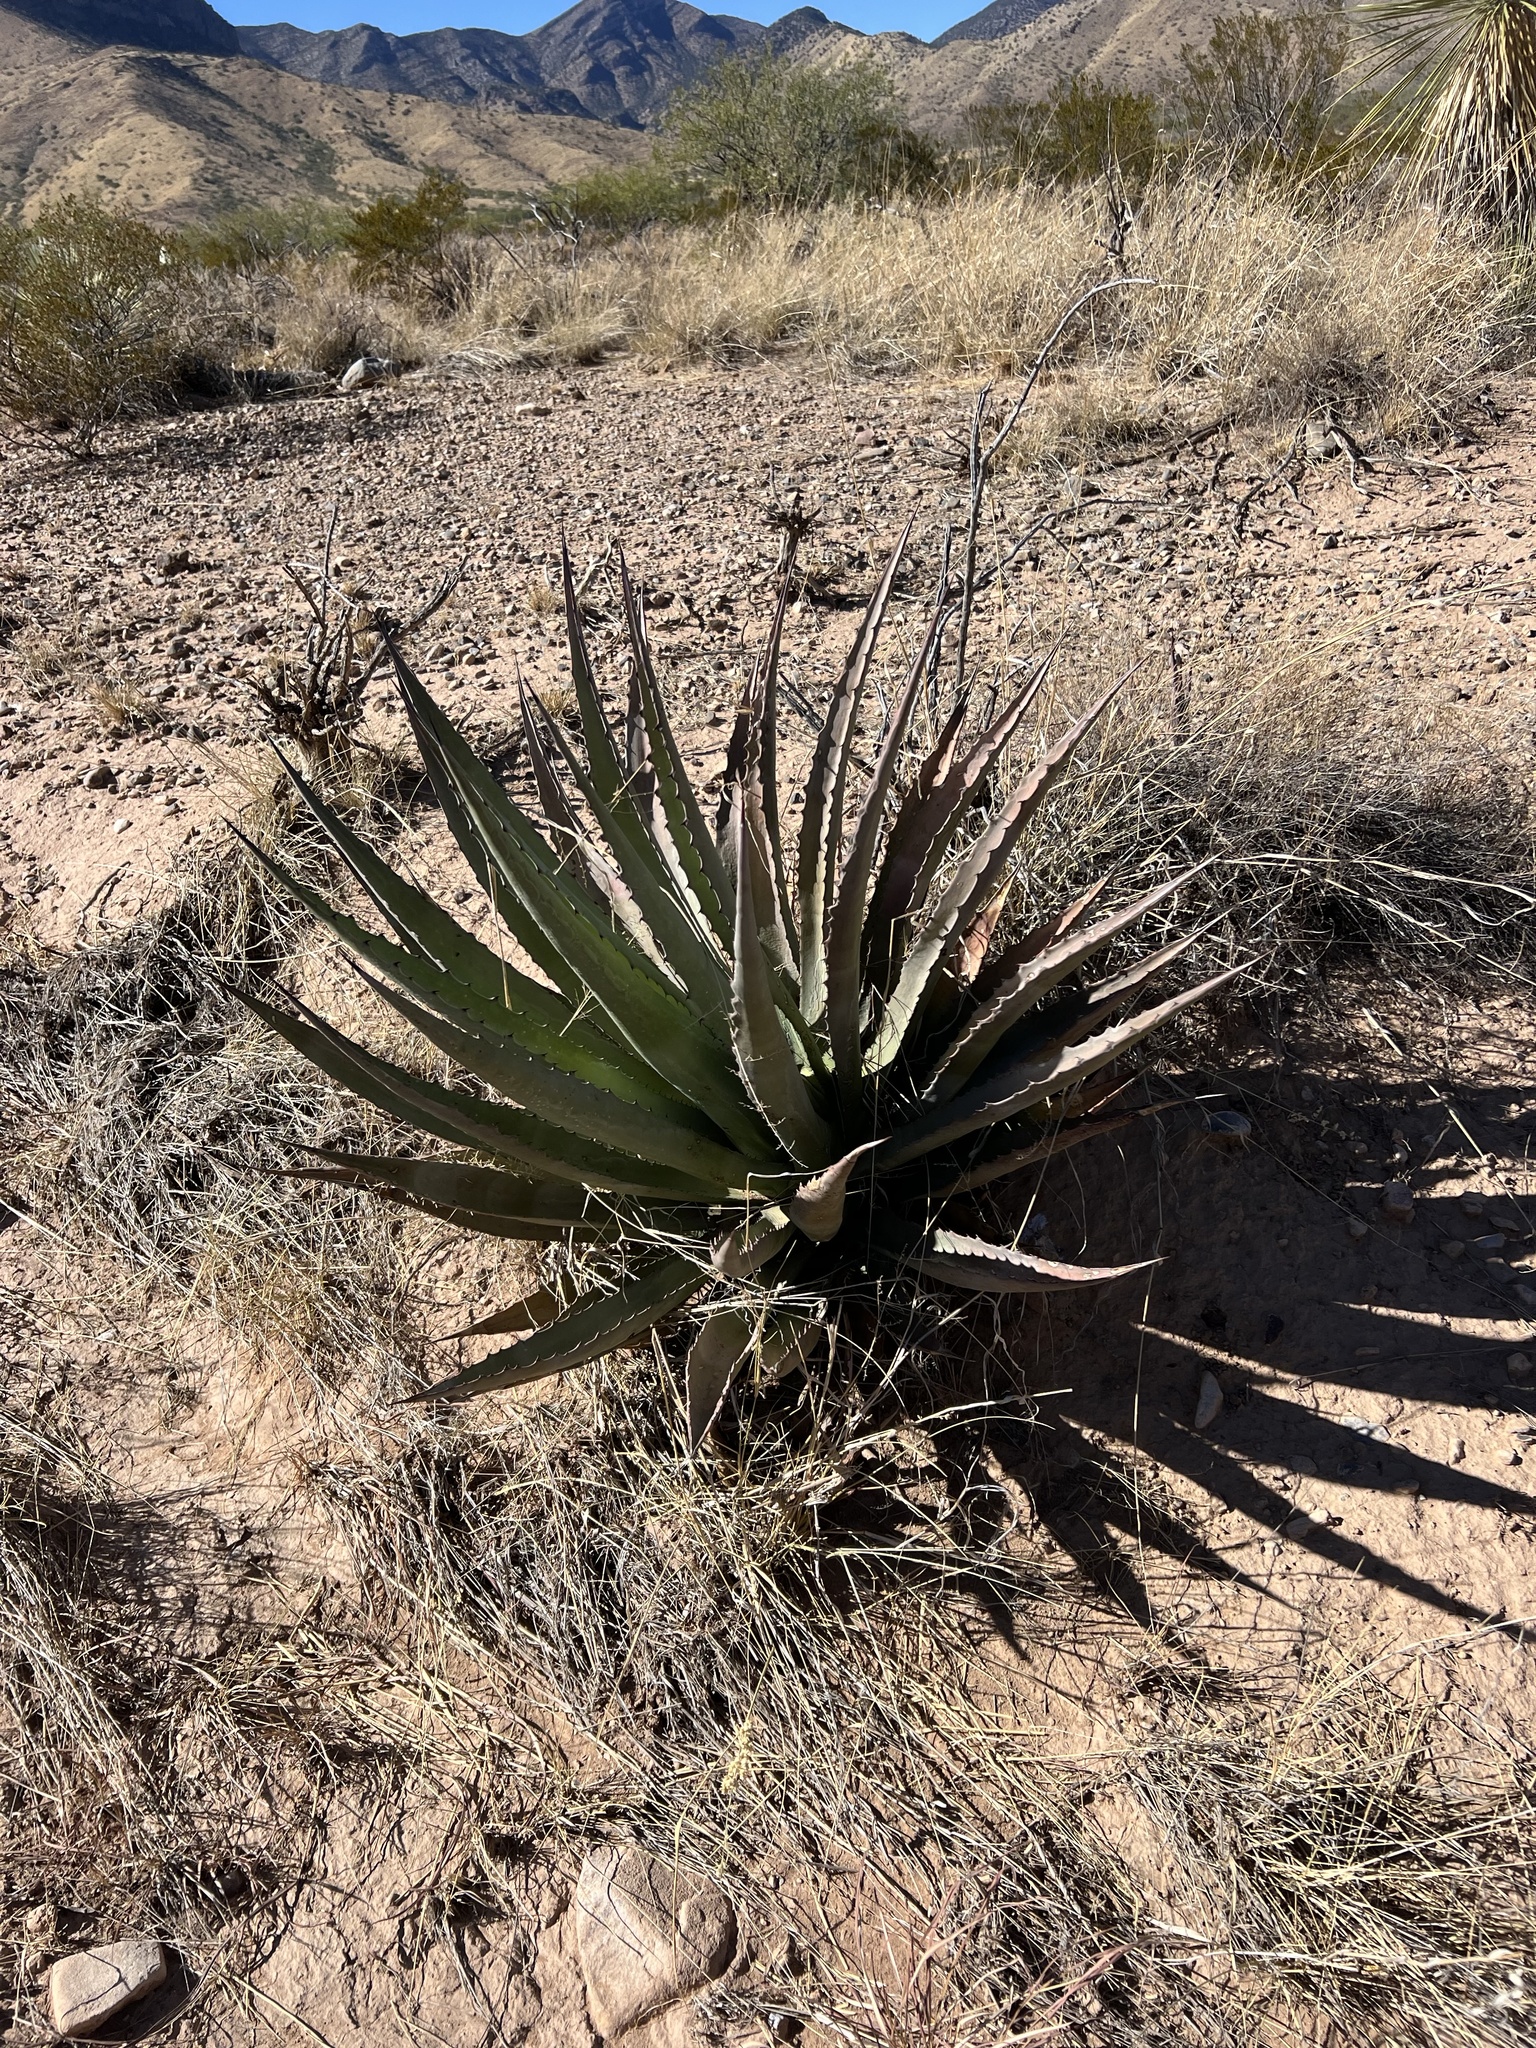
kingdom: Plantae
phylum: Tracheophyta
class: Liliopsida
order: Asparagales
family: Asparagaceae
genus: Agave
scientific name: Agave palmeri
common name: Palmer agave
